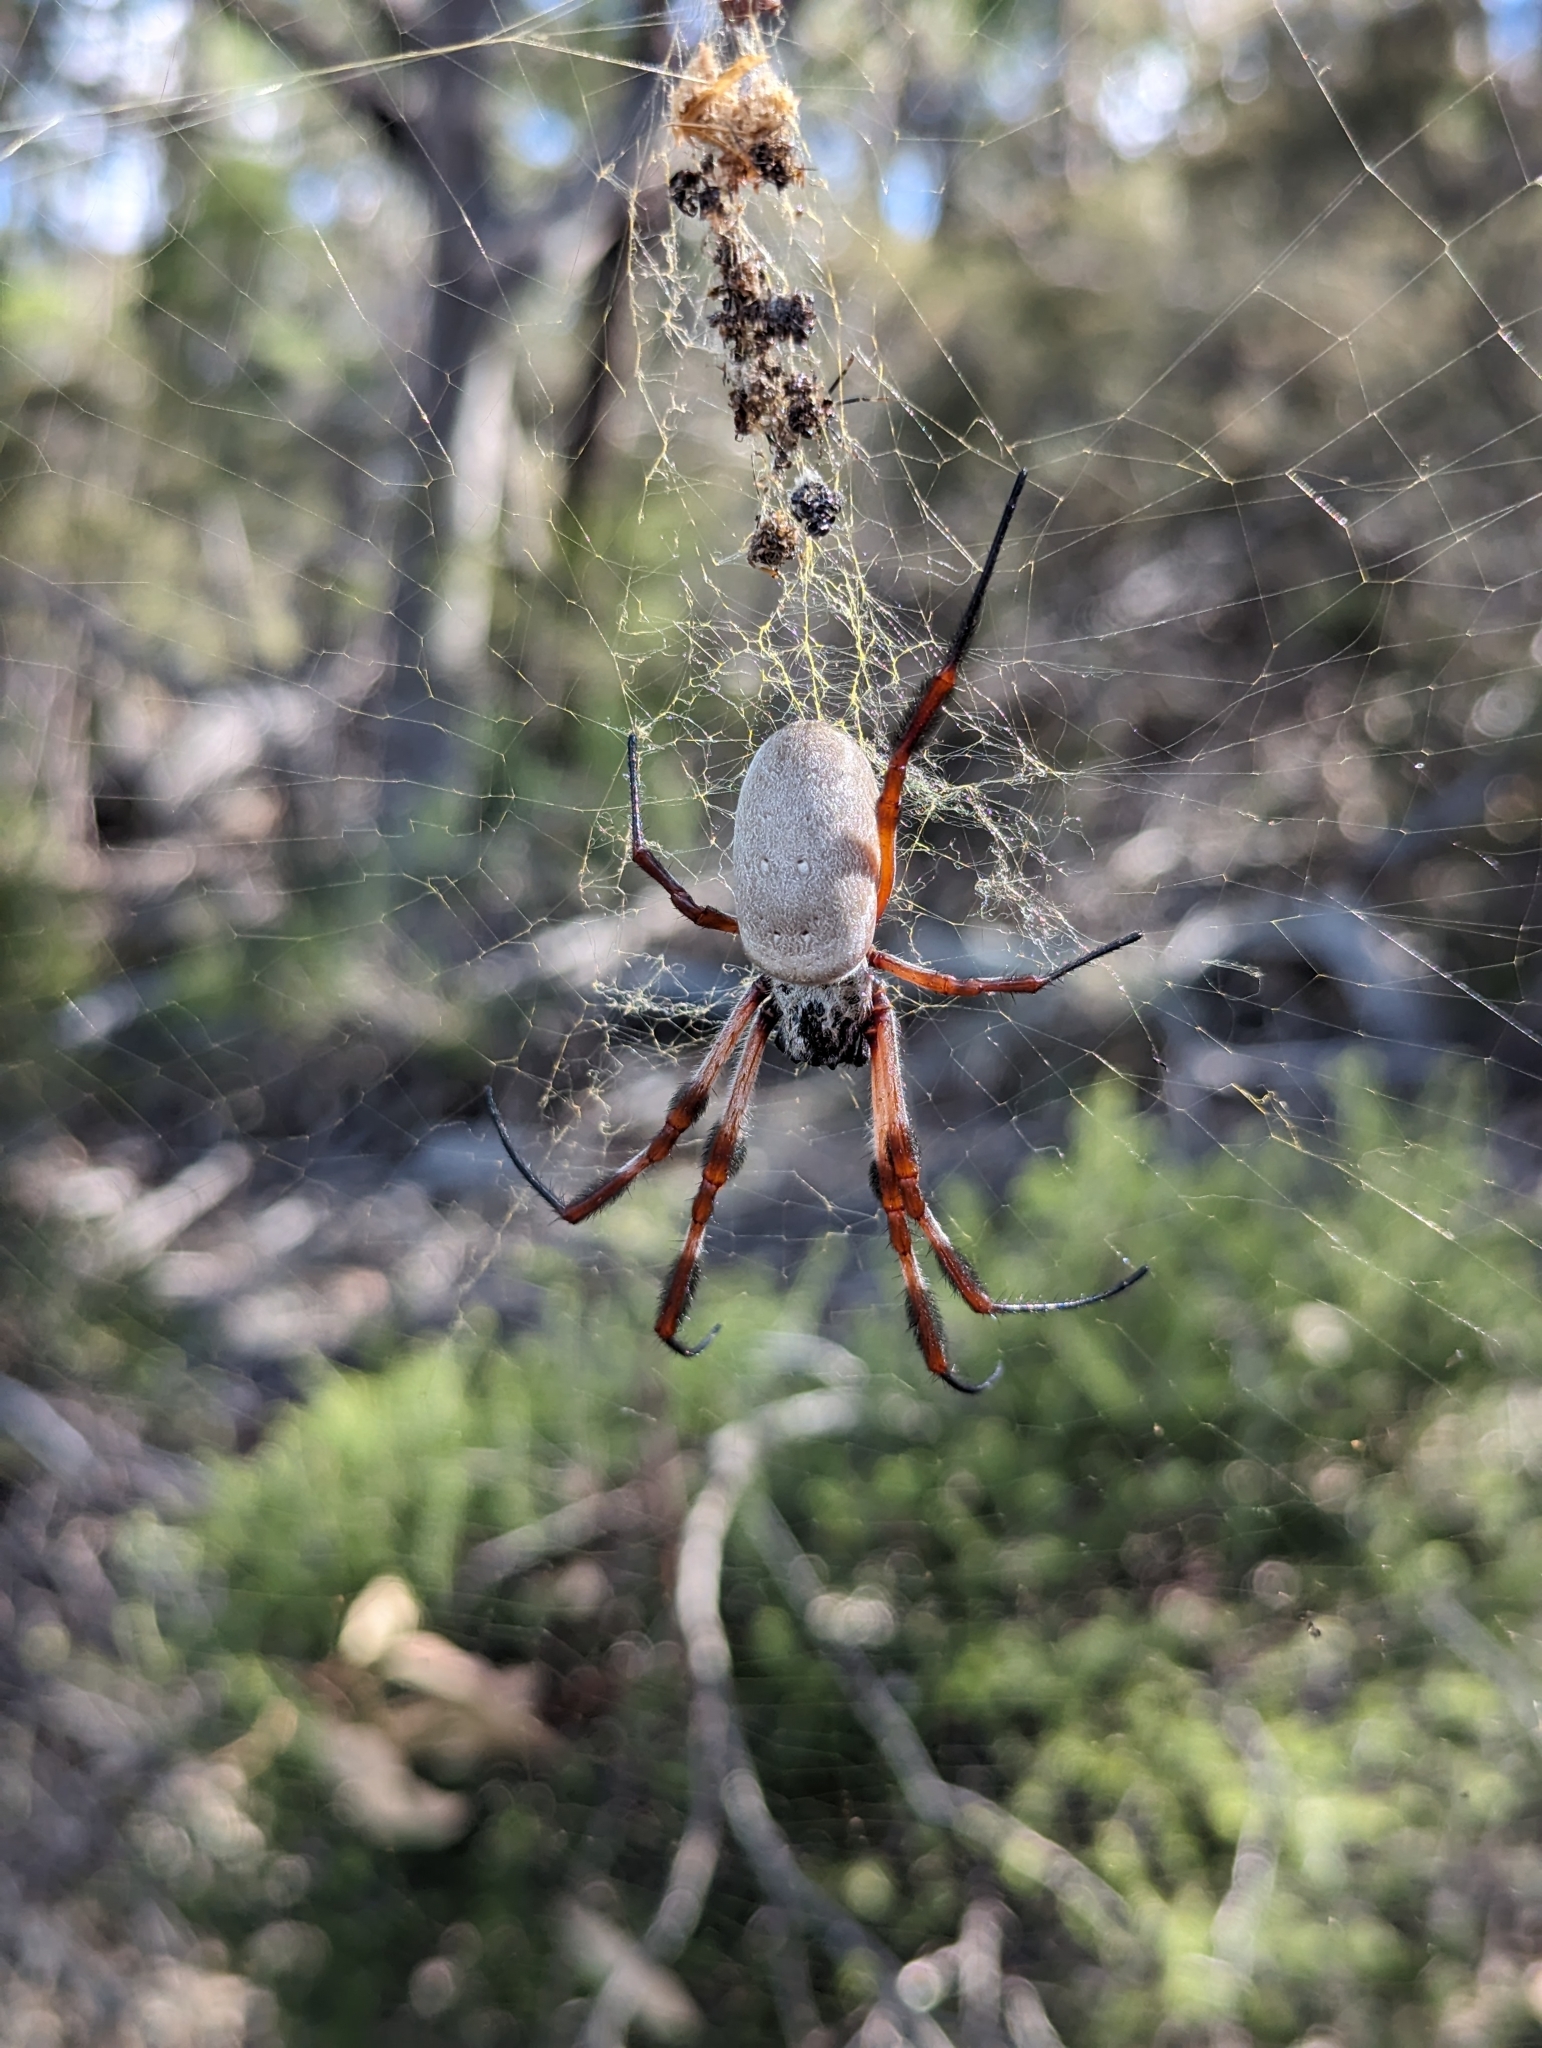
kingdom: Animalia
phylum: Arthropoda
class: Arachnida
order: Araneae
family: Araneidae
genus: Trichonephila
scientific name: Trichonephila edulis
